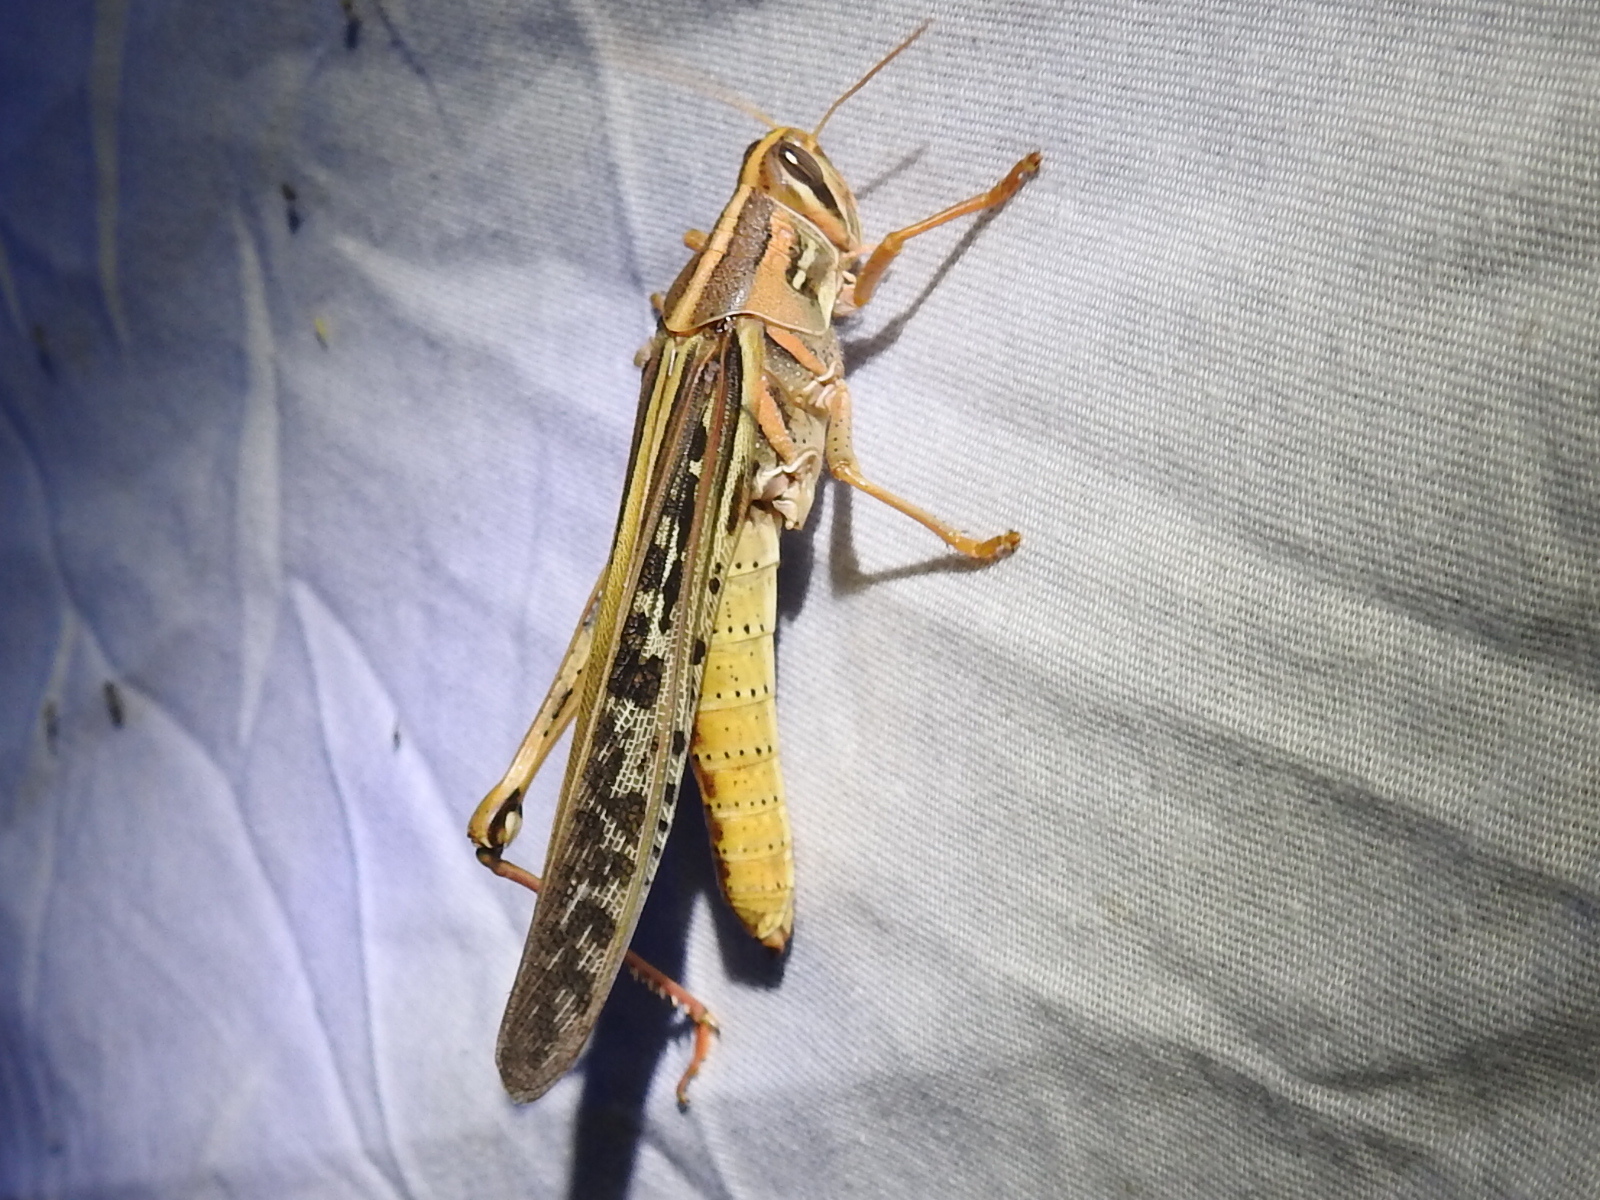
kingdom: Animalia
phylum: Arthropoda
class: Insecta
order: Orthoptera
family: Acrididae
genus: Schistocerca
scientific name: Schistocerca americana
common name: American bird locust
